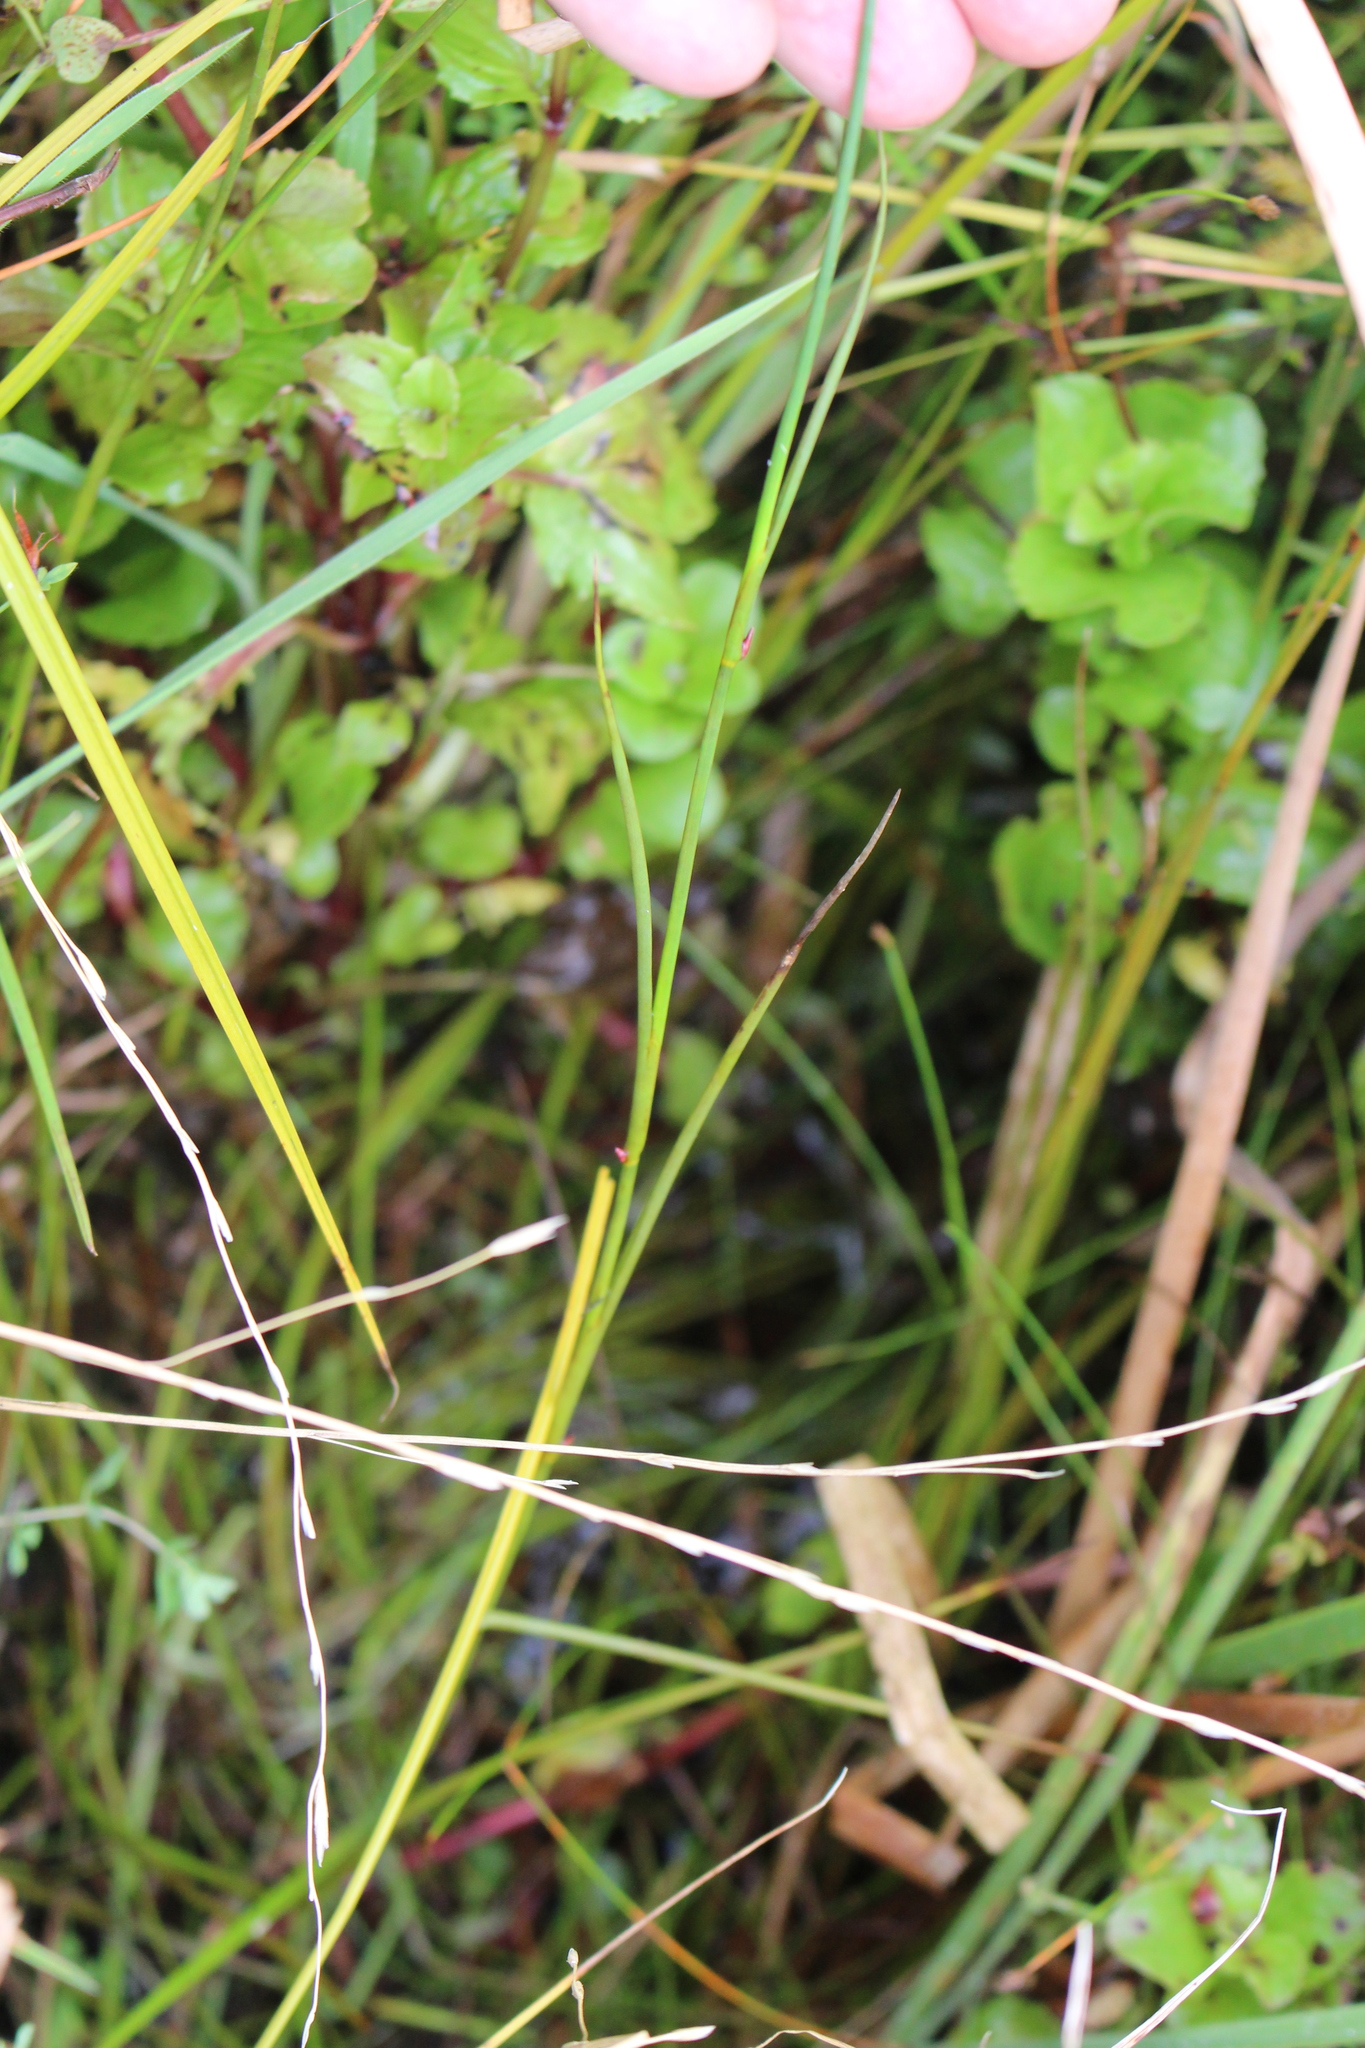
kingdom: Plantae
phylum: Tracheophyta
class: Liliopsida
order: Poales
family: Juncaceae
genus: Juncus
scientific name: Juncus articulatus
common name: Jointed rush
